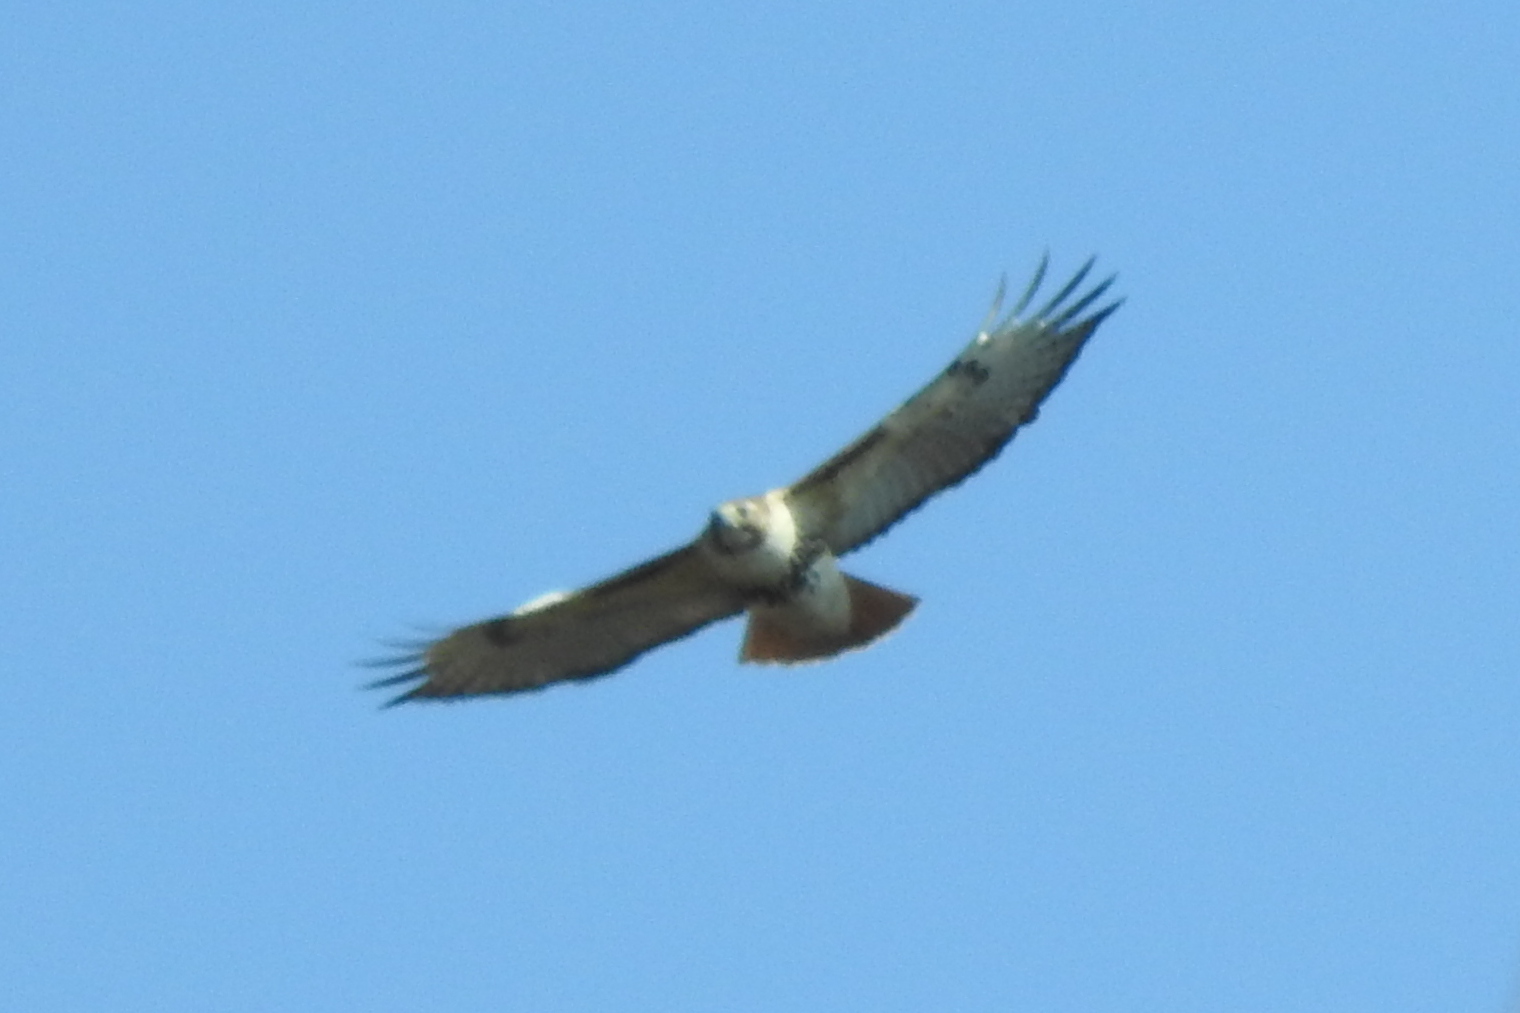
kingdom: Animalia
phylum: Chordata
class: Aves
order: Accipitriformes
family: Accipitridae
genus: Buteo
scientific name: Buteo jamaicensis
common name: Red-tailed hawk
